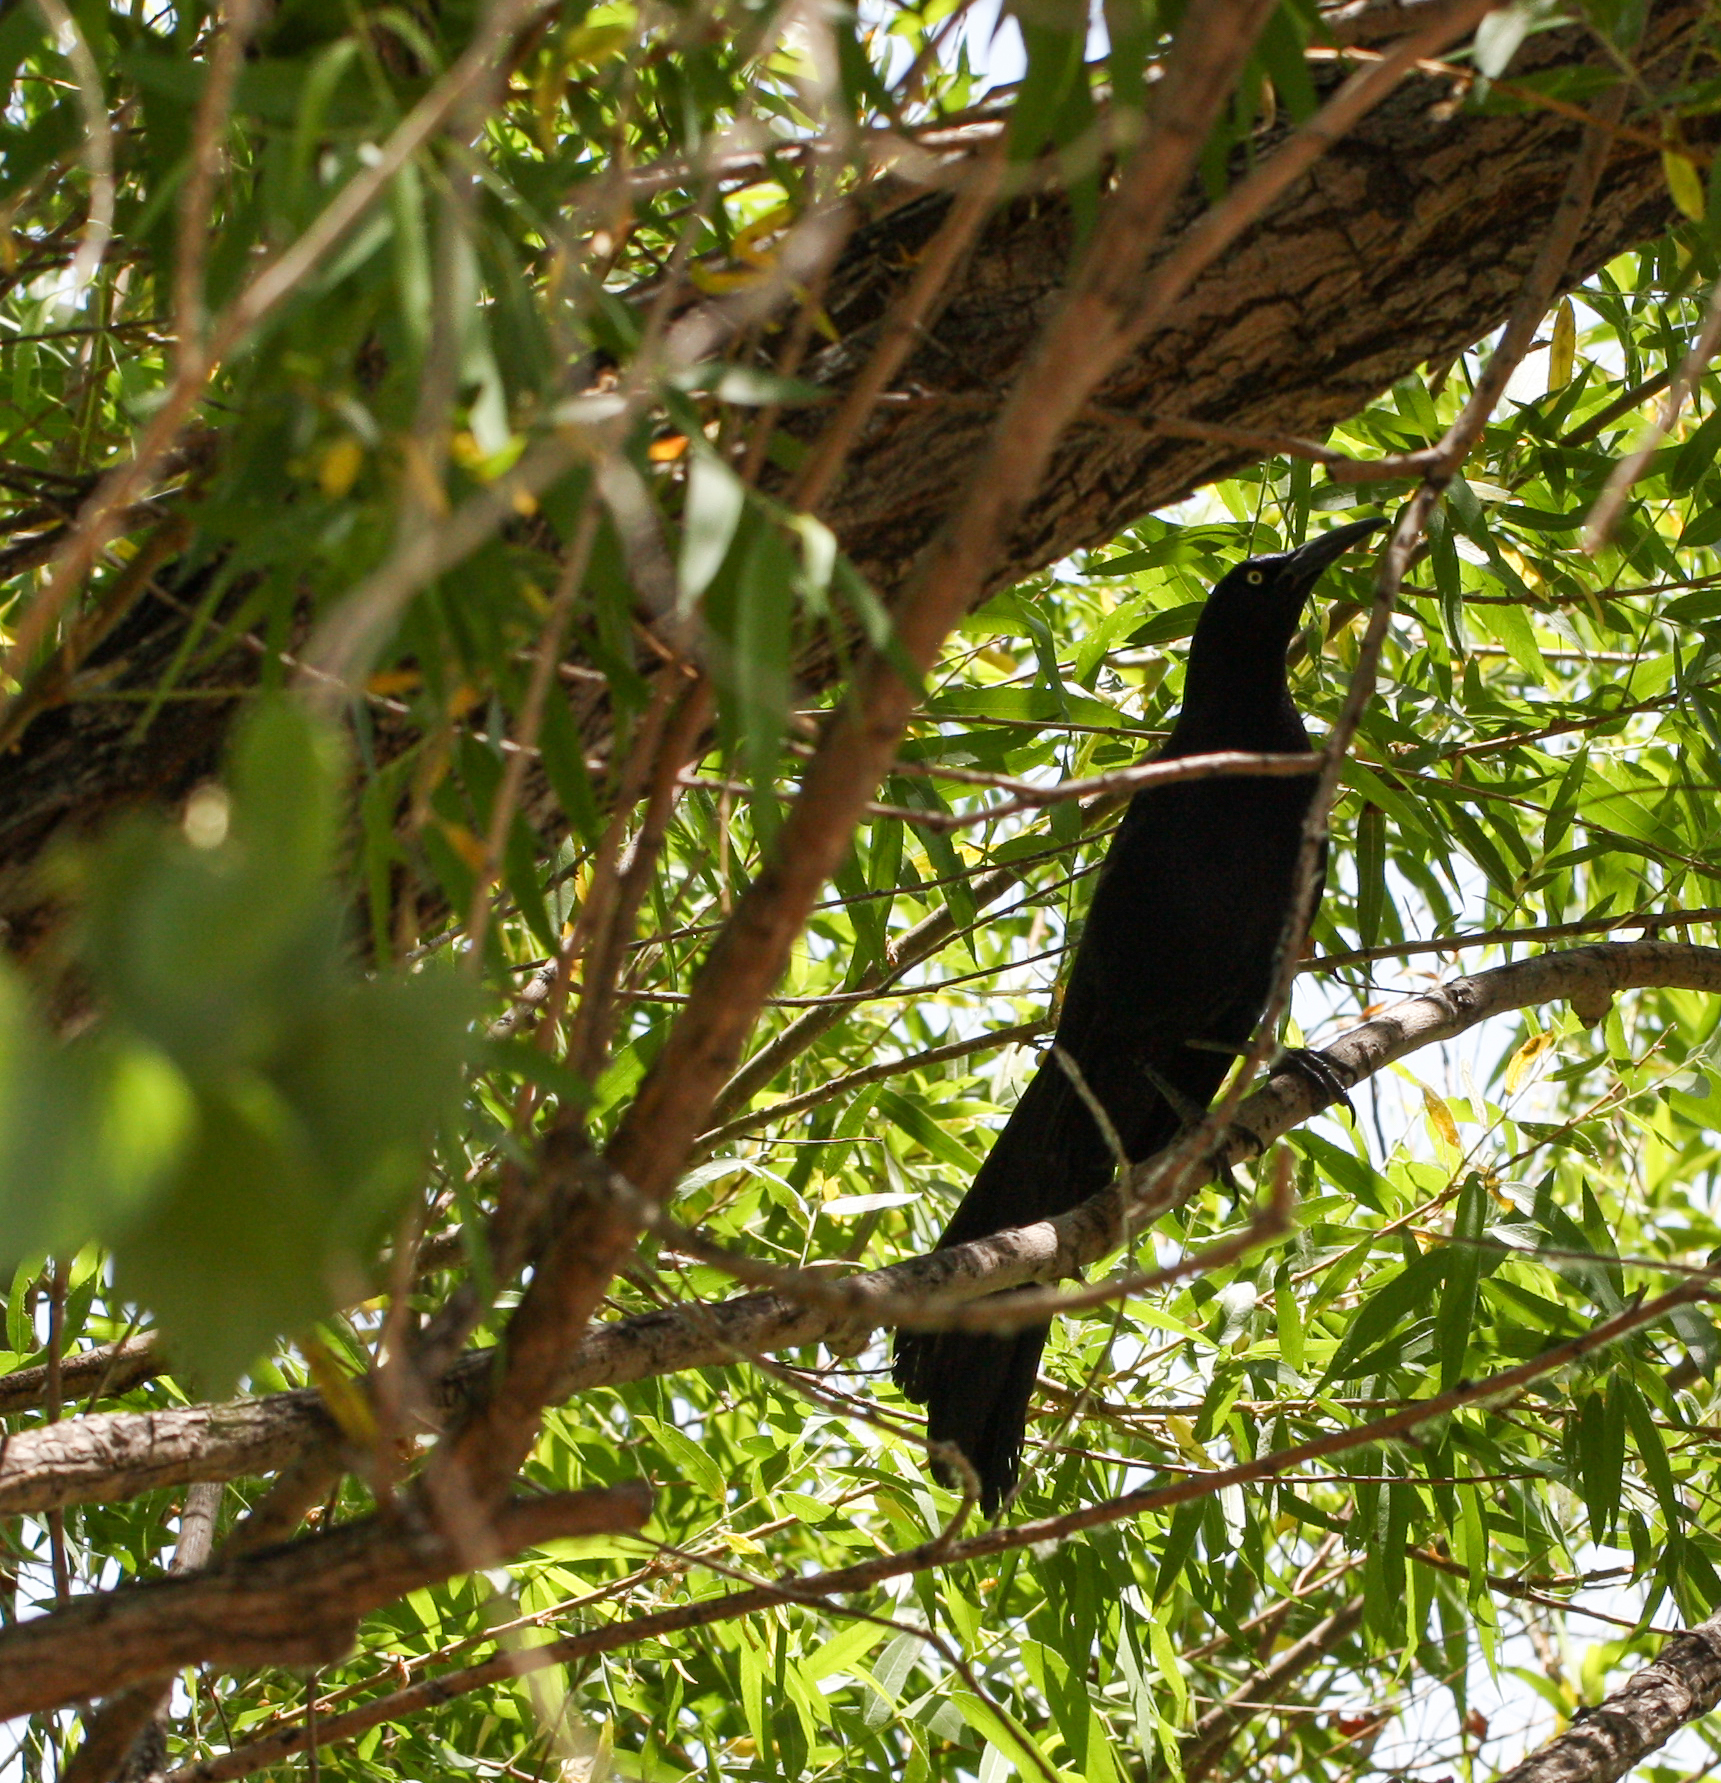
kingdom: Animalia
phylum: Chordata
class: Aves
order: Passeriformes
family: Icteridae
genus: Quiscalus
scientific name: Quiscalus mexicanus
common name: Great-tailed grackle
